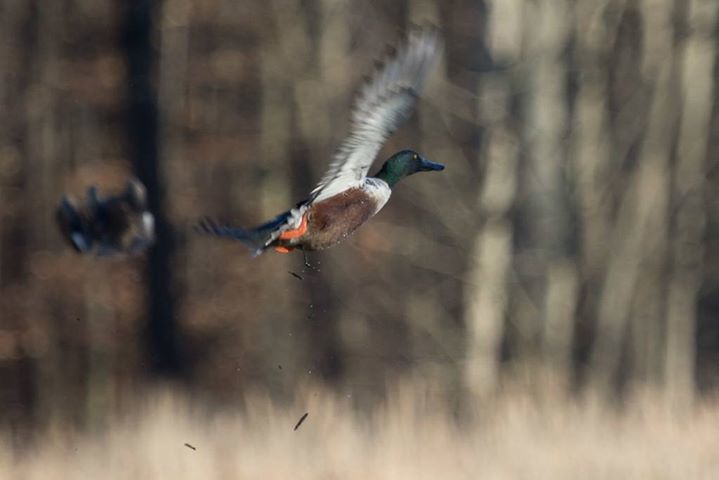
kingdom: Animalia
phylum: Chordata
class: Aves
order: Anseriformes
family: Anatidae
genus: Spatula
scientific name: Spatula clypeata
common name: Northern shoveler
